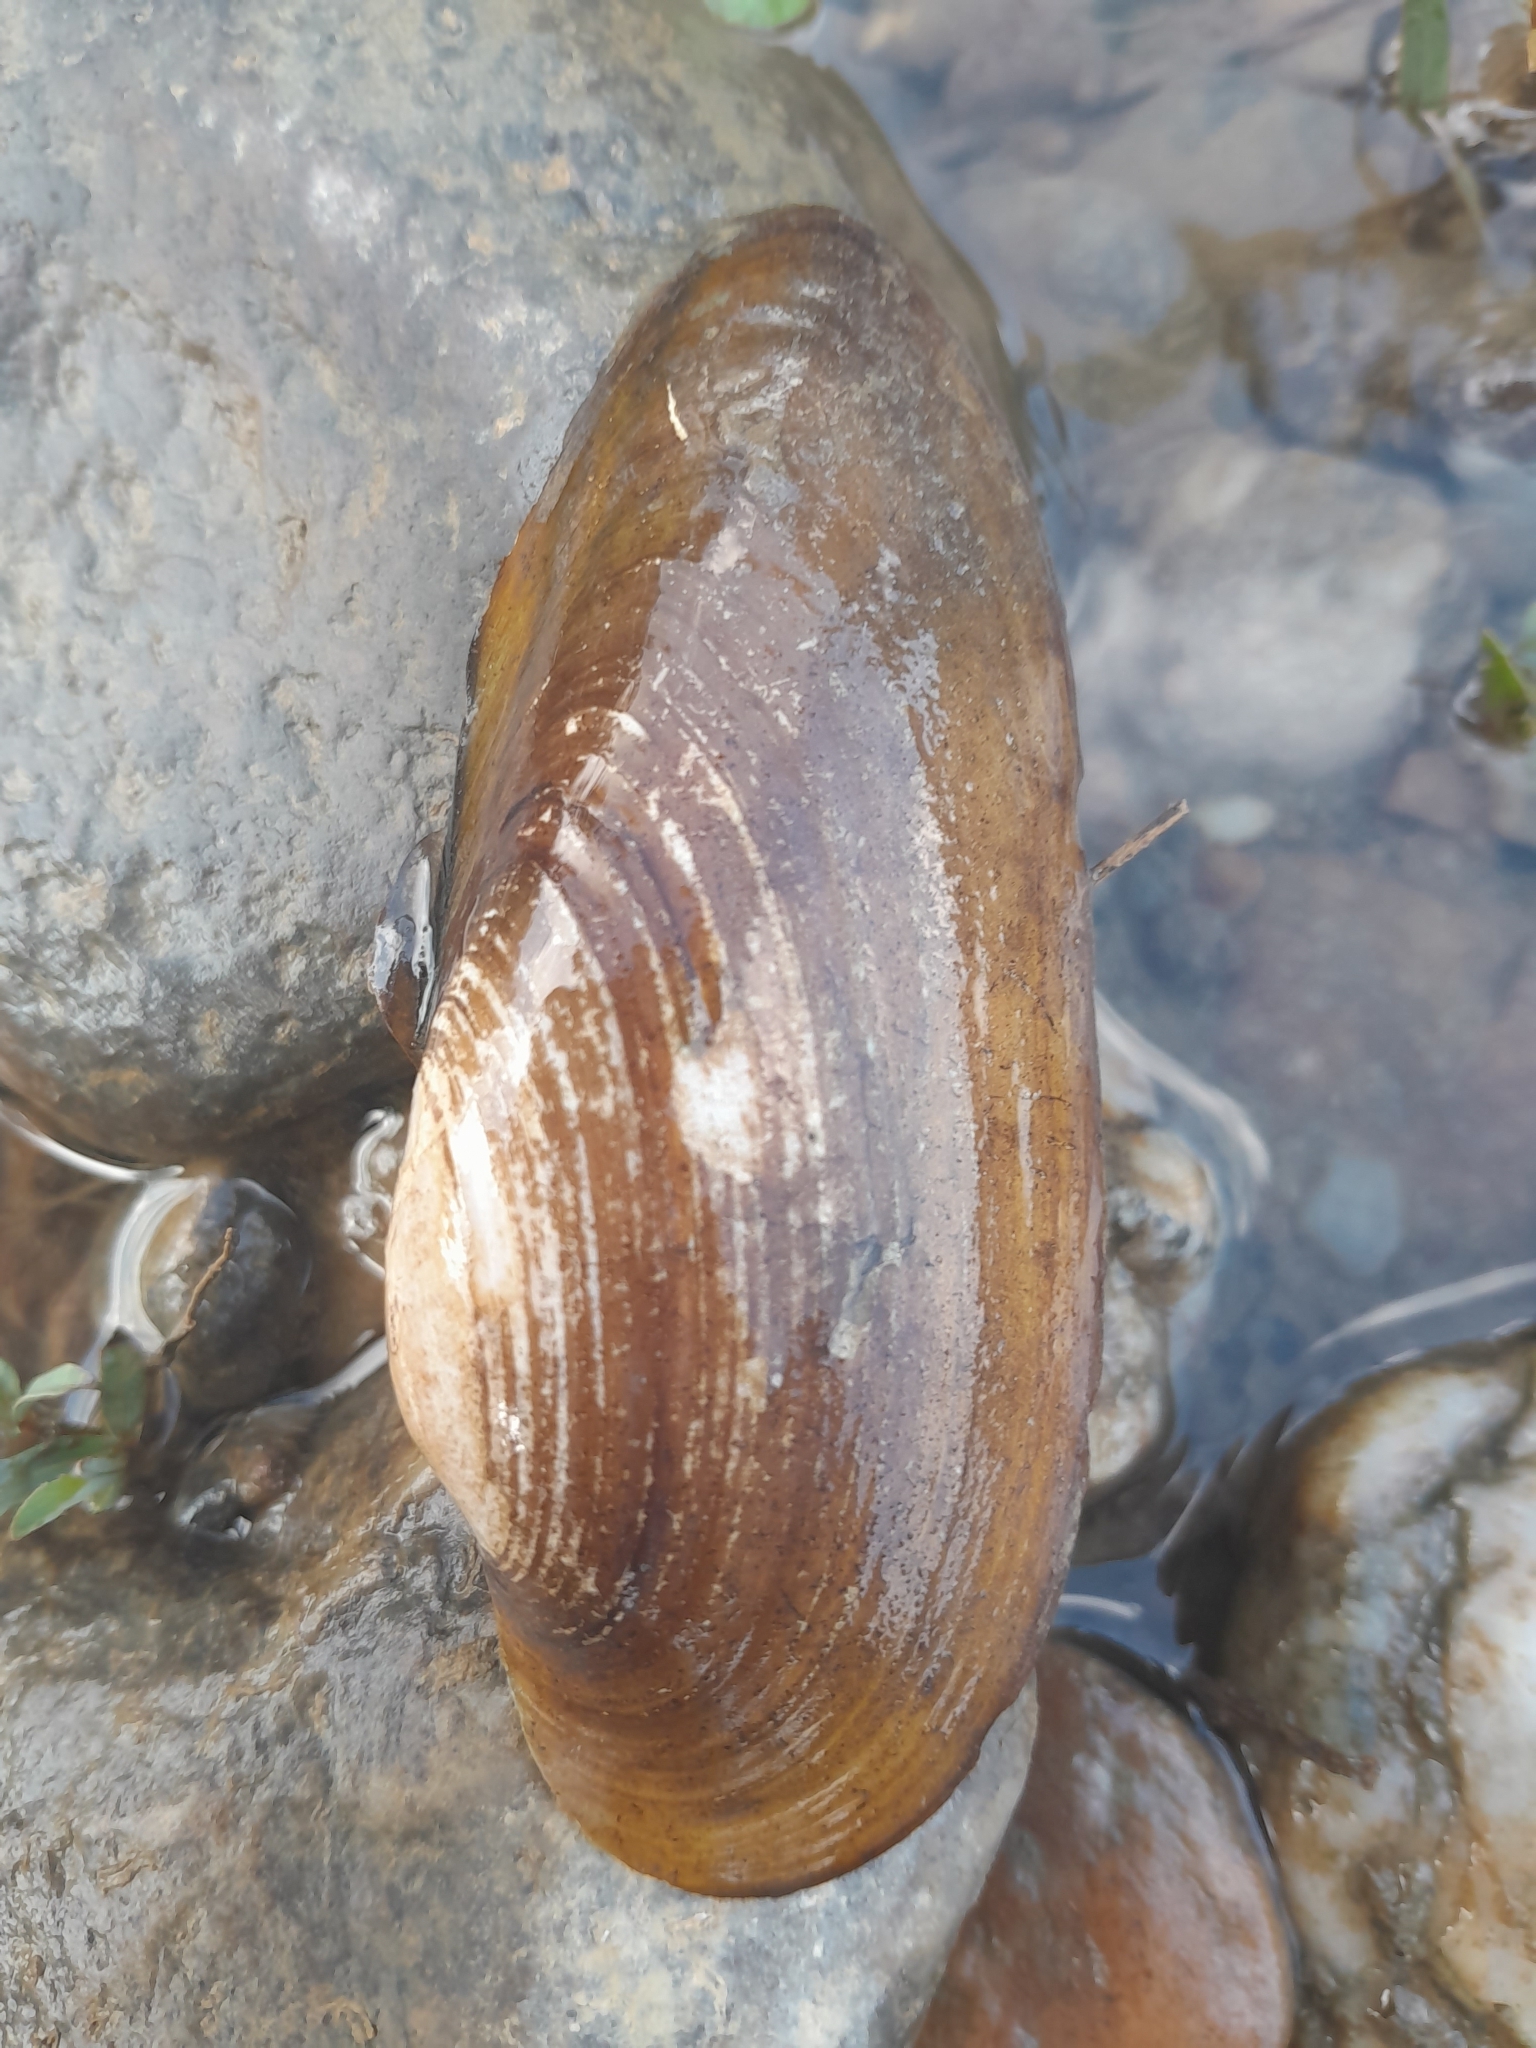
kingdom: Animalia
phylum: Mollusca
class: Bivalvia
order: Unionida
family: Unionidae
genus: Unio
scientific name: Unio pictorum
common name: Painter's mussel
